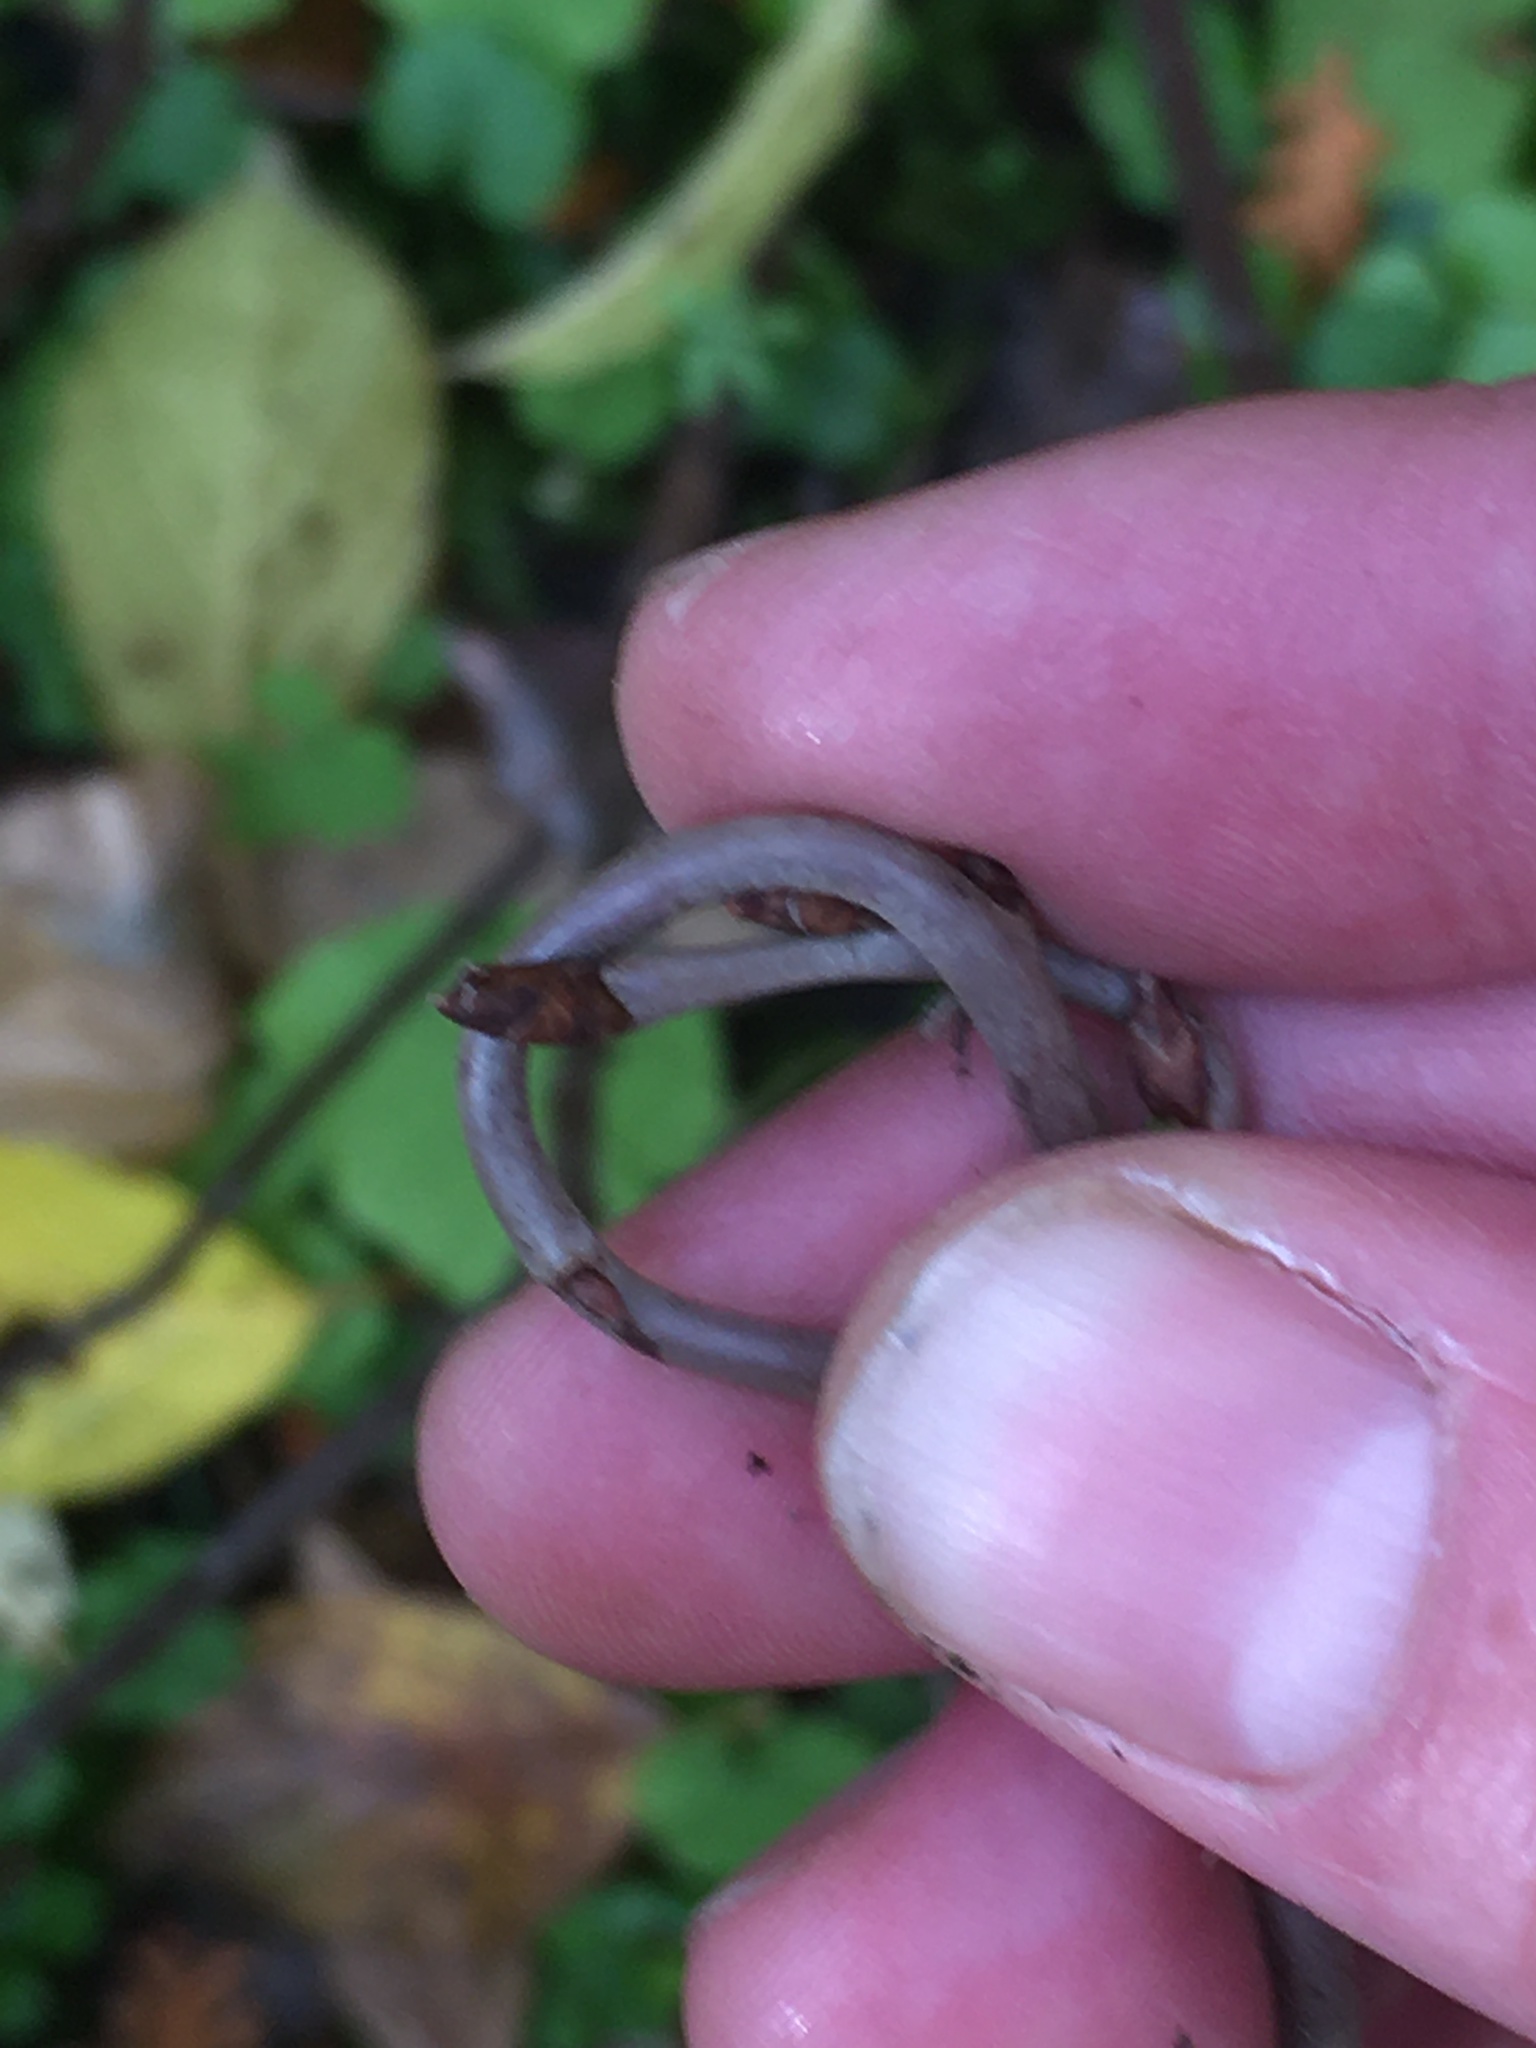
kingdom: Plantae
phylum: Tracheophyta
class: Magnoliopsida
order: Rosales
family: Rhamnaceae
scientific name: Rhamnaceae
